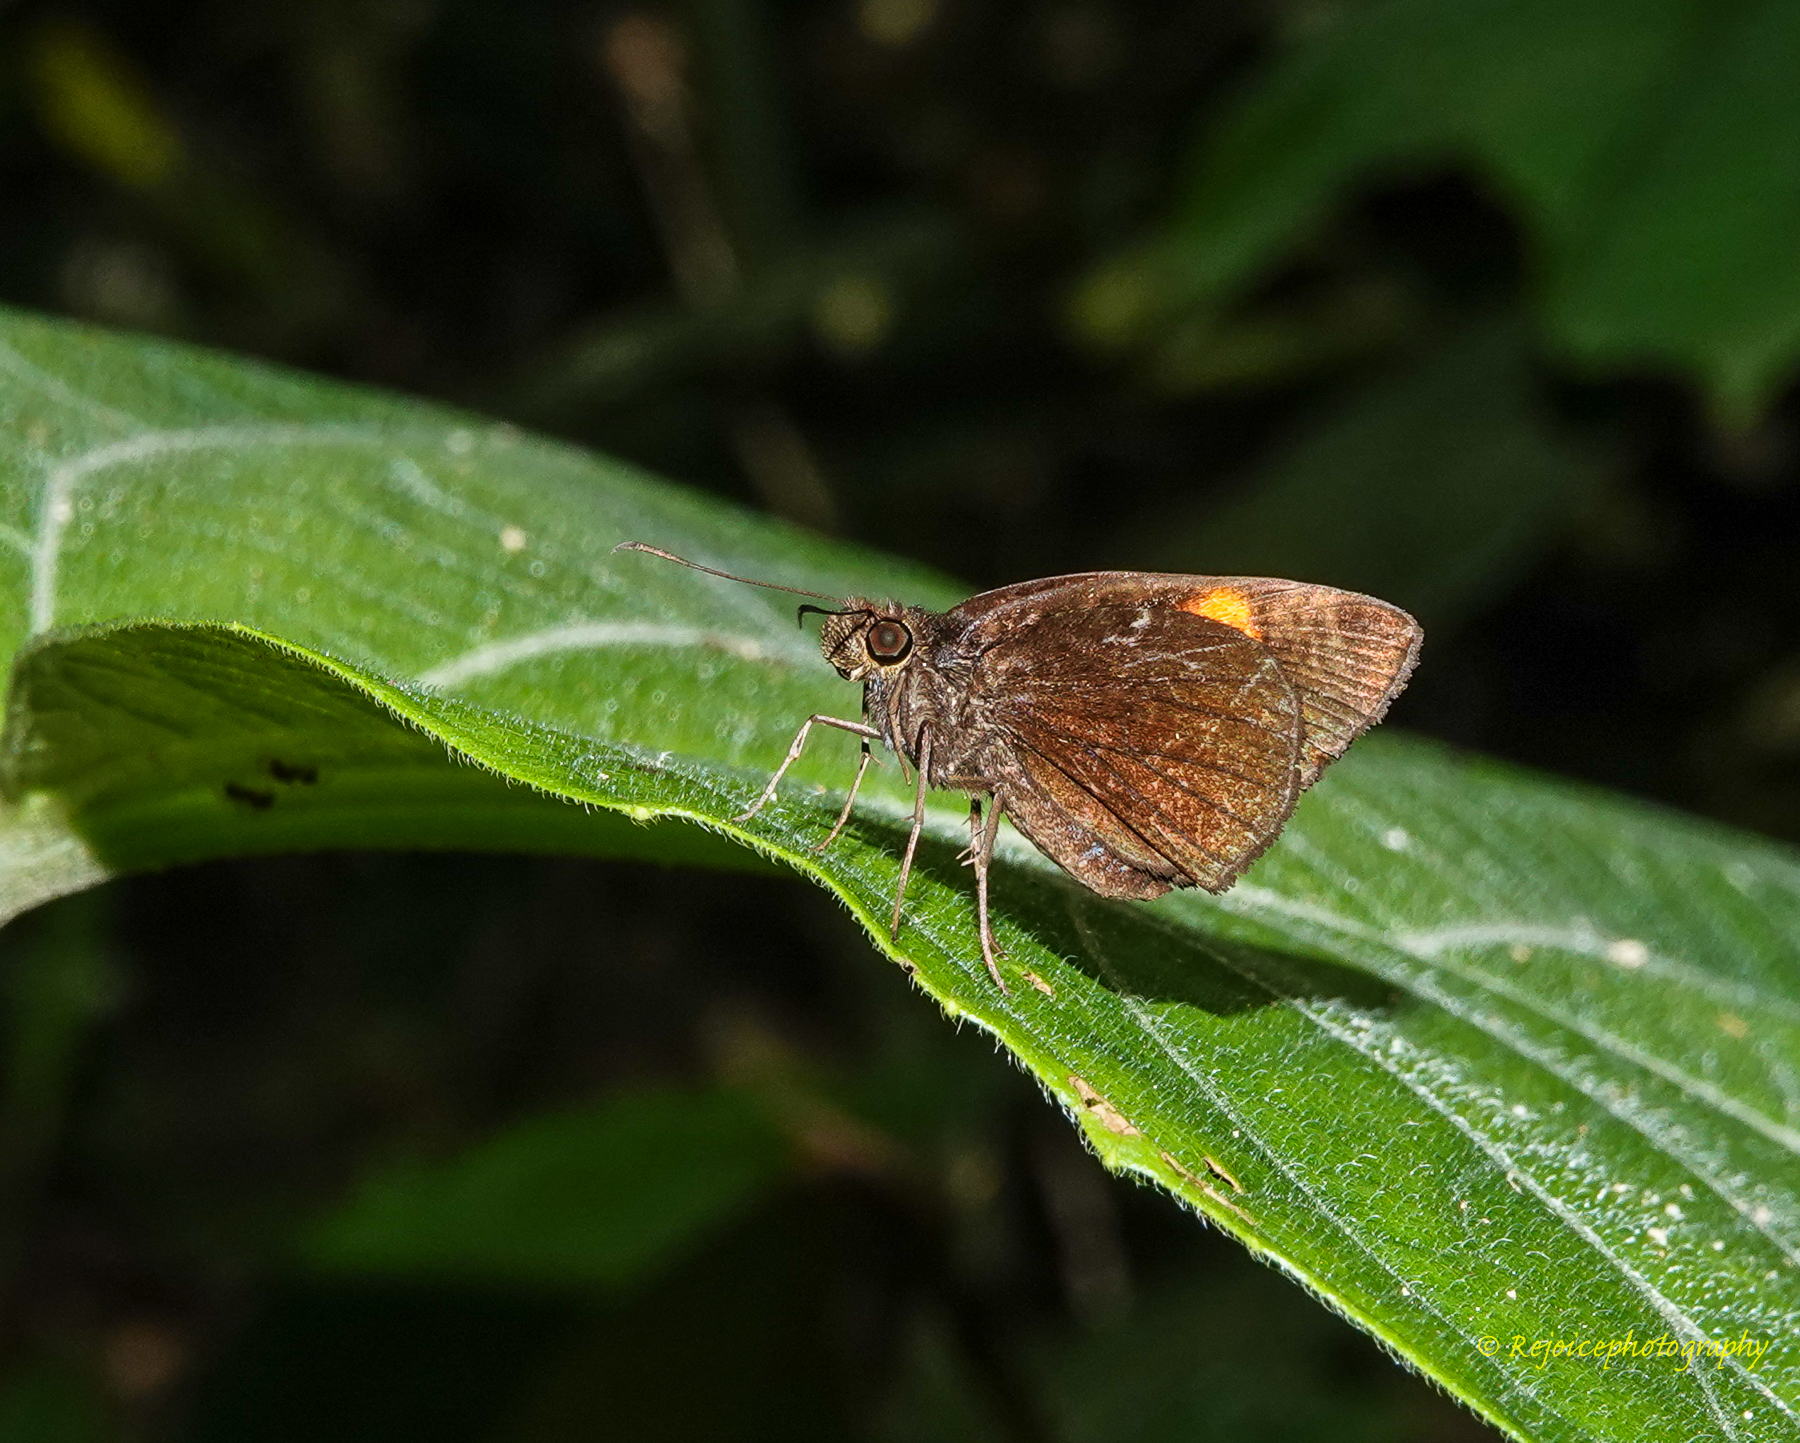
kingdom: Animalia
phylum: Arthropoda
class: Insecta
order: Lepidoptera
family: Hesperiidae
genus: Koruthaialos
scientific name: Koruthaialos sindu
